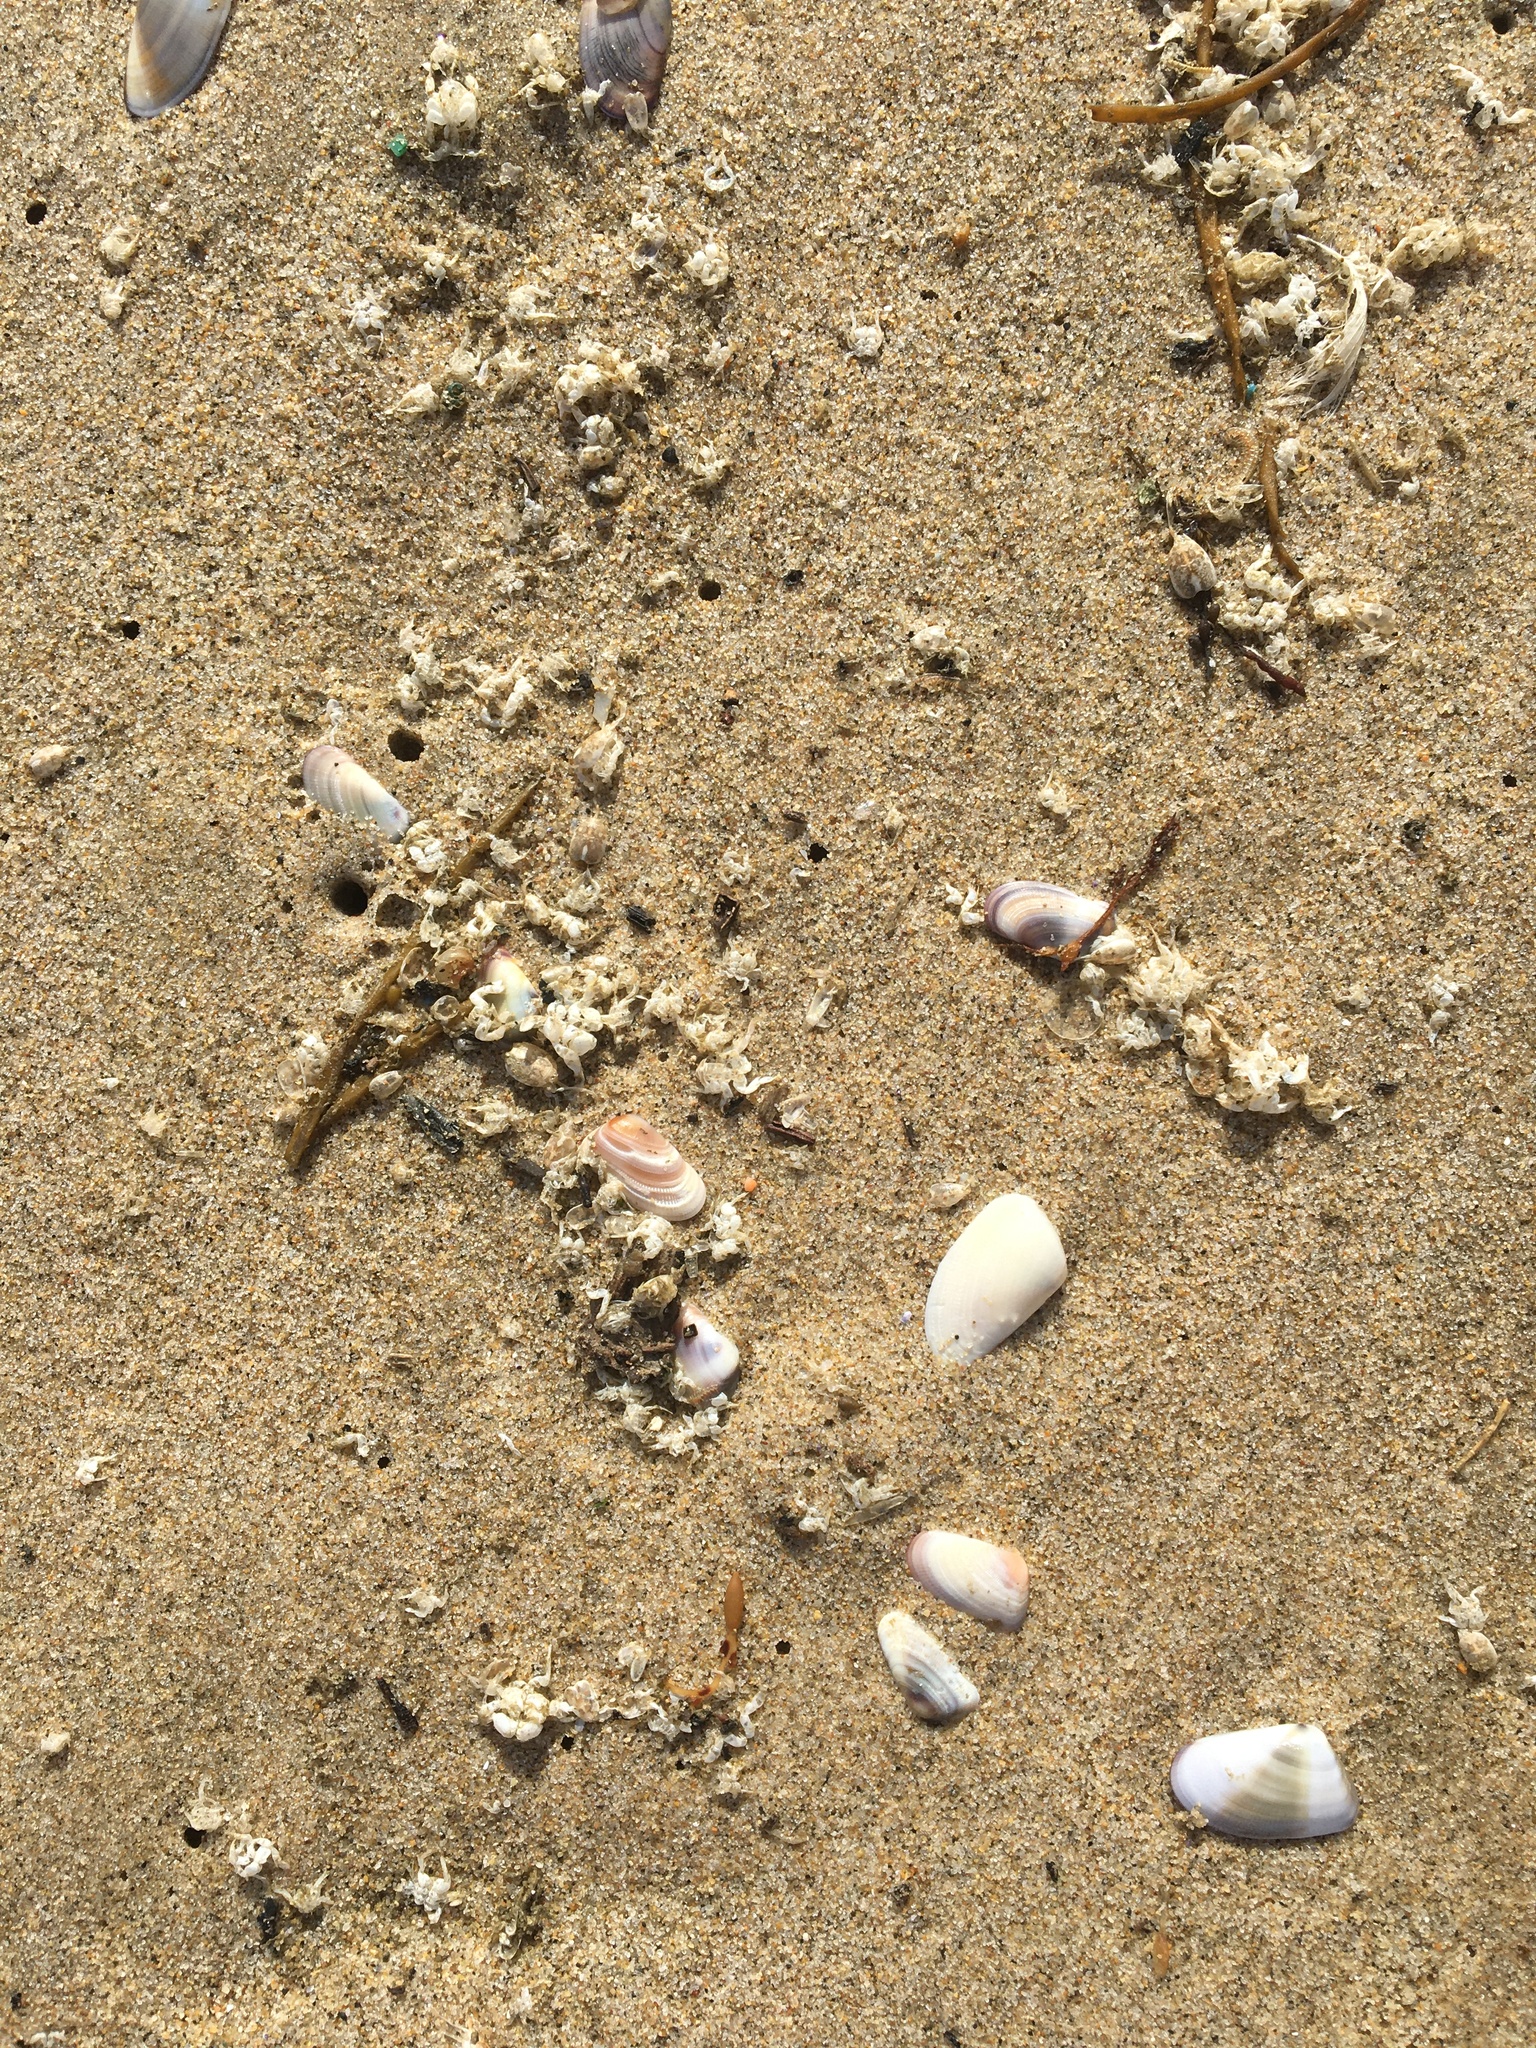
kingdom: Animalia
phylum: Mollusca
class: Bivalvia
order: Cardiida
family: Donacidae
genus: Donax
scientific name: Donax gouldii
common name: Gould beanclam
